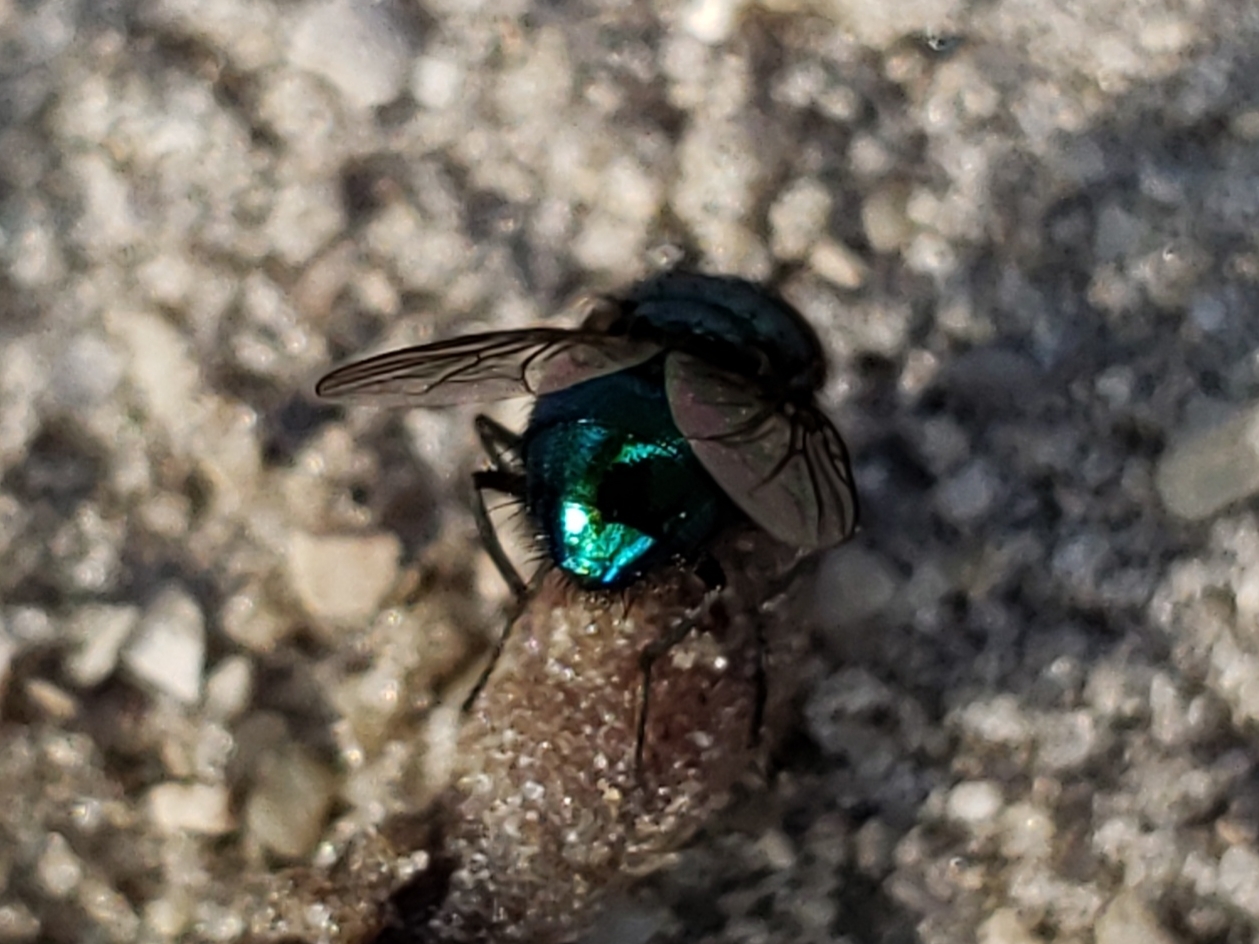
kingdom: Animalia
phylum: Arthropoda
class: Insecta
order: Diptera
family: Calliphoridae
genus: Lucilia
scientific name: Lucilia caeruleiviridis
